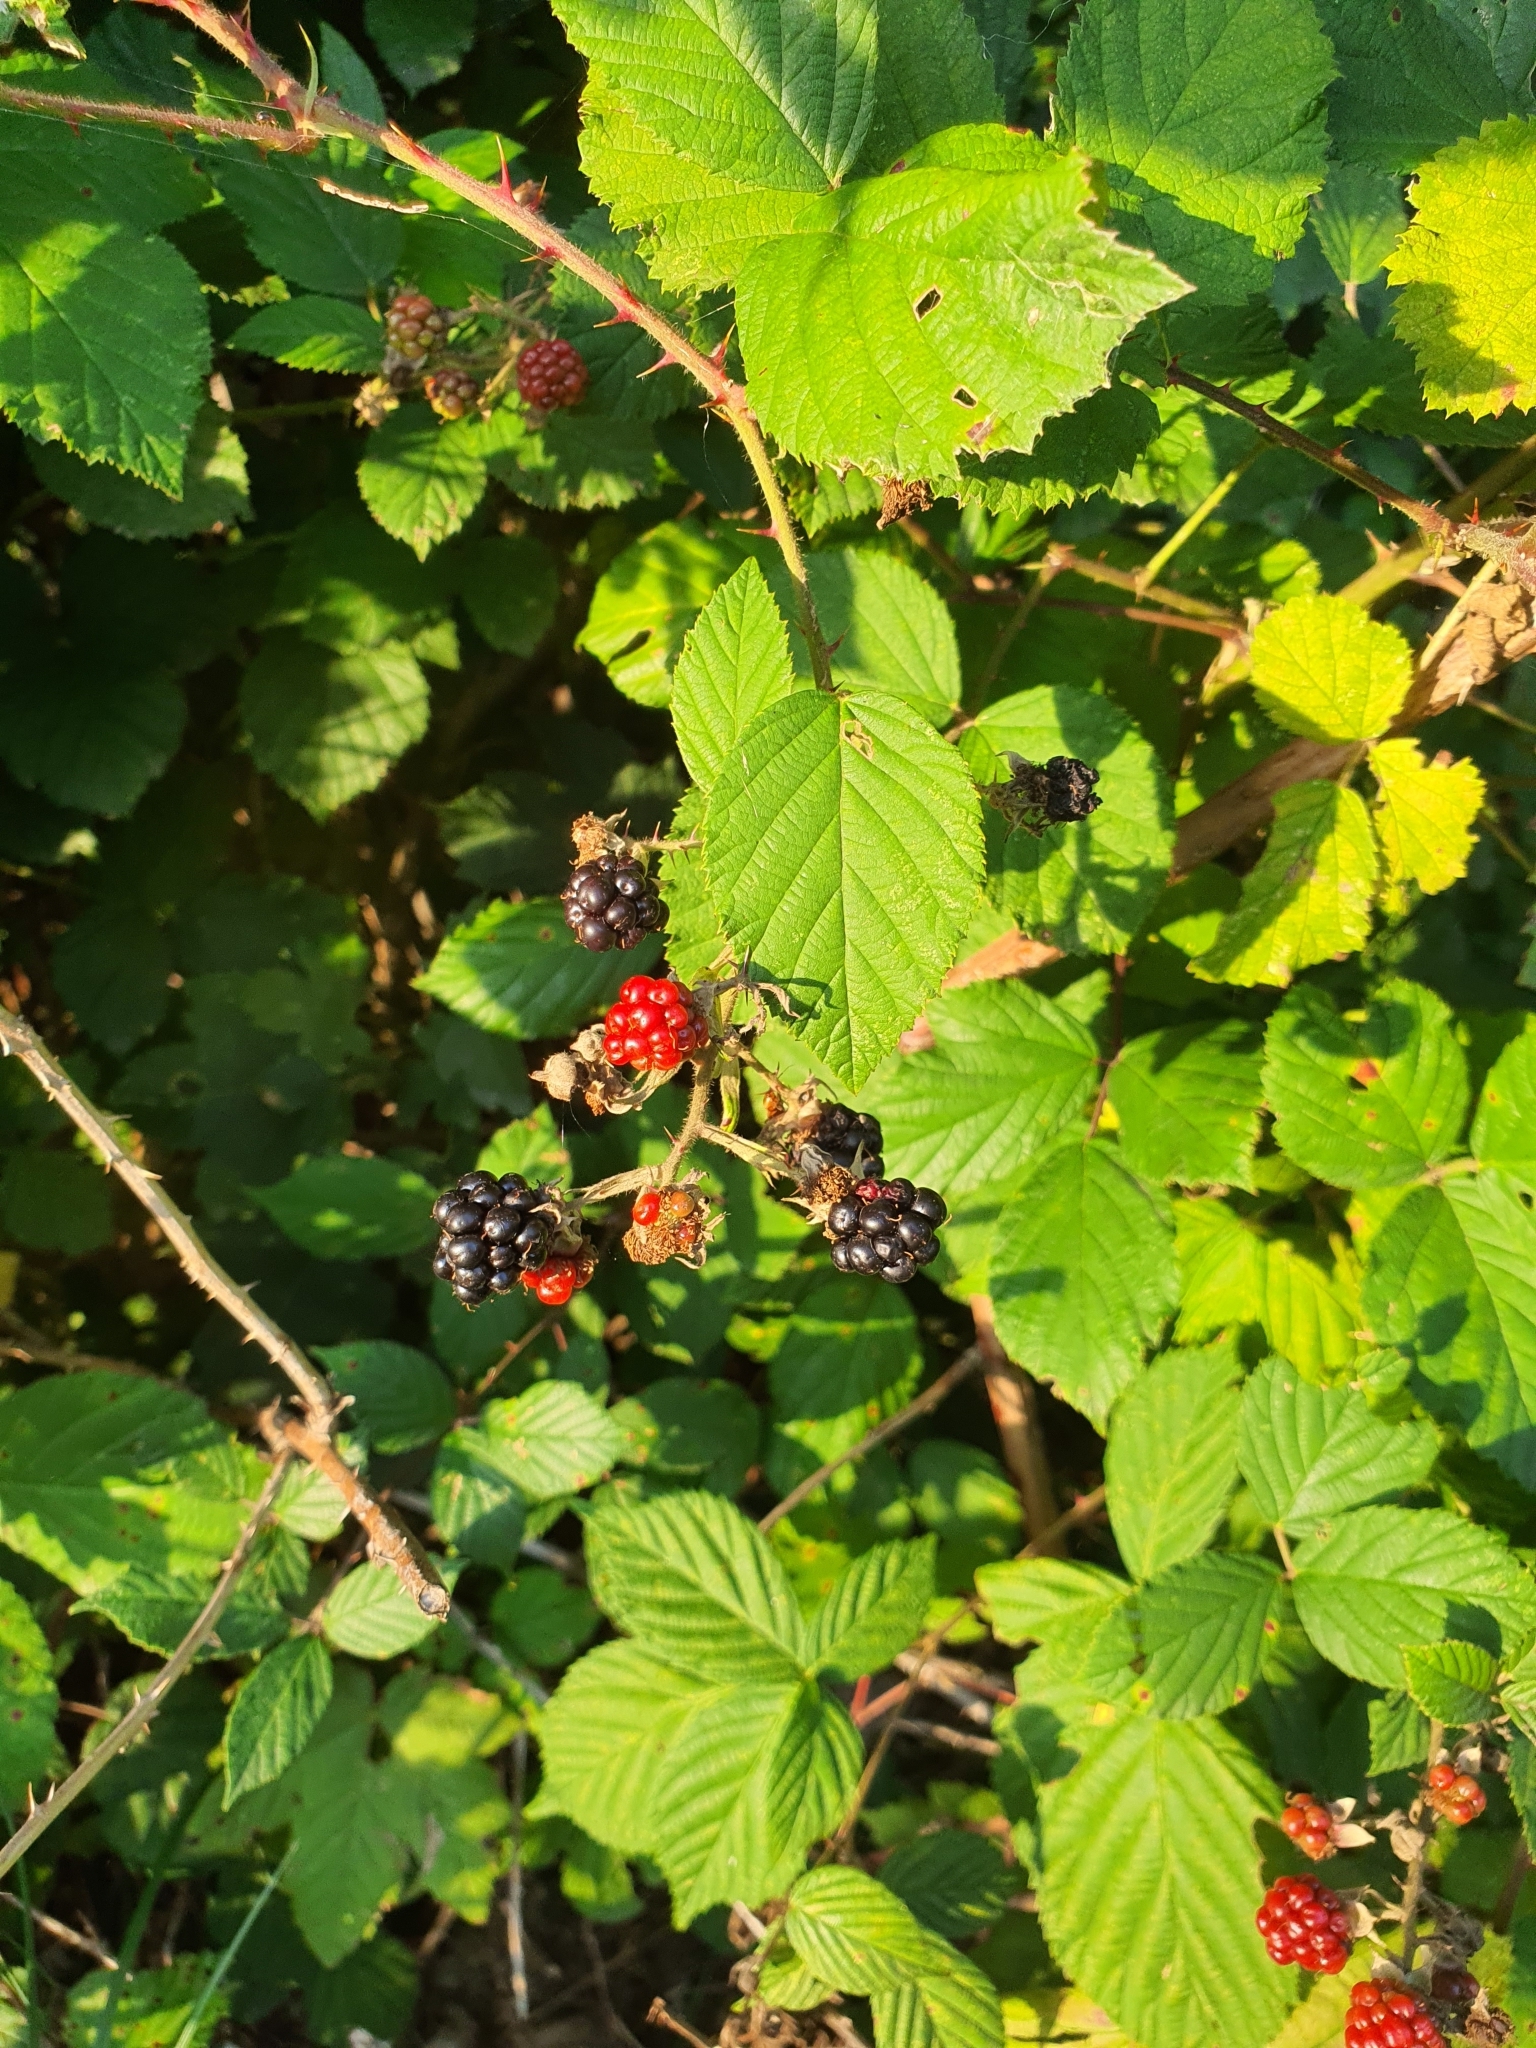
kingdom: Plantae
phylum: Tracheophyta
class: Magnoliopsida
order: Rosales
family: Rosaceae
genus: Rubus
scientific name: Rubus
